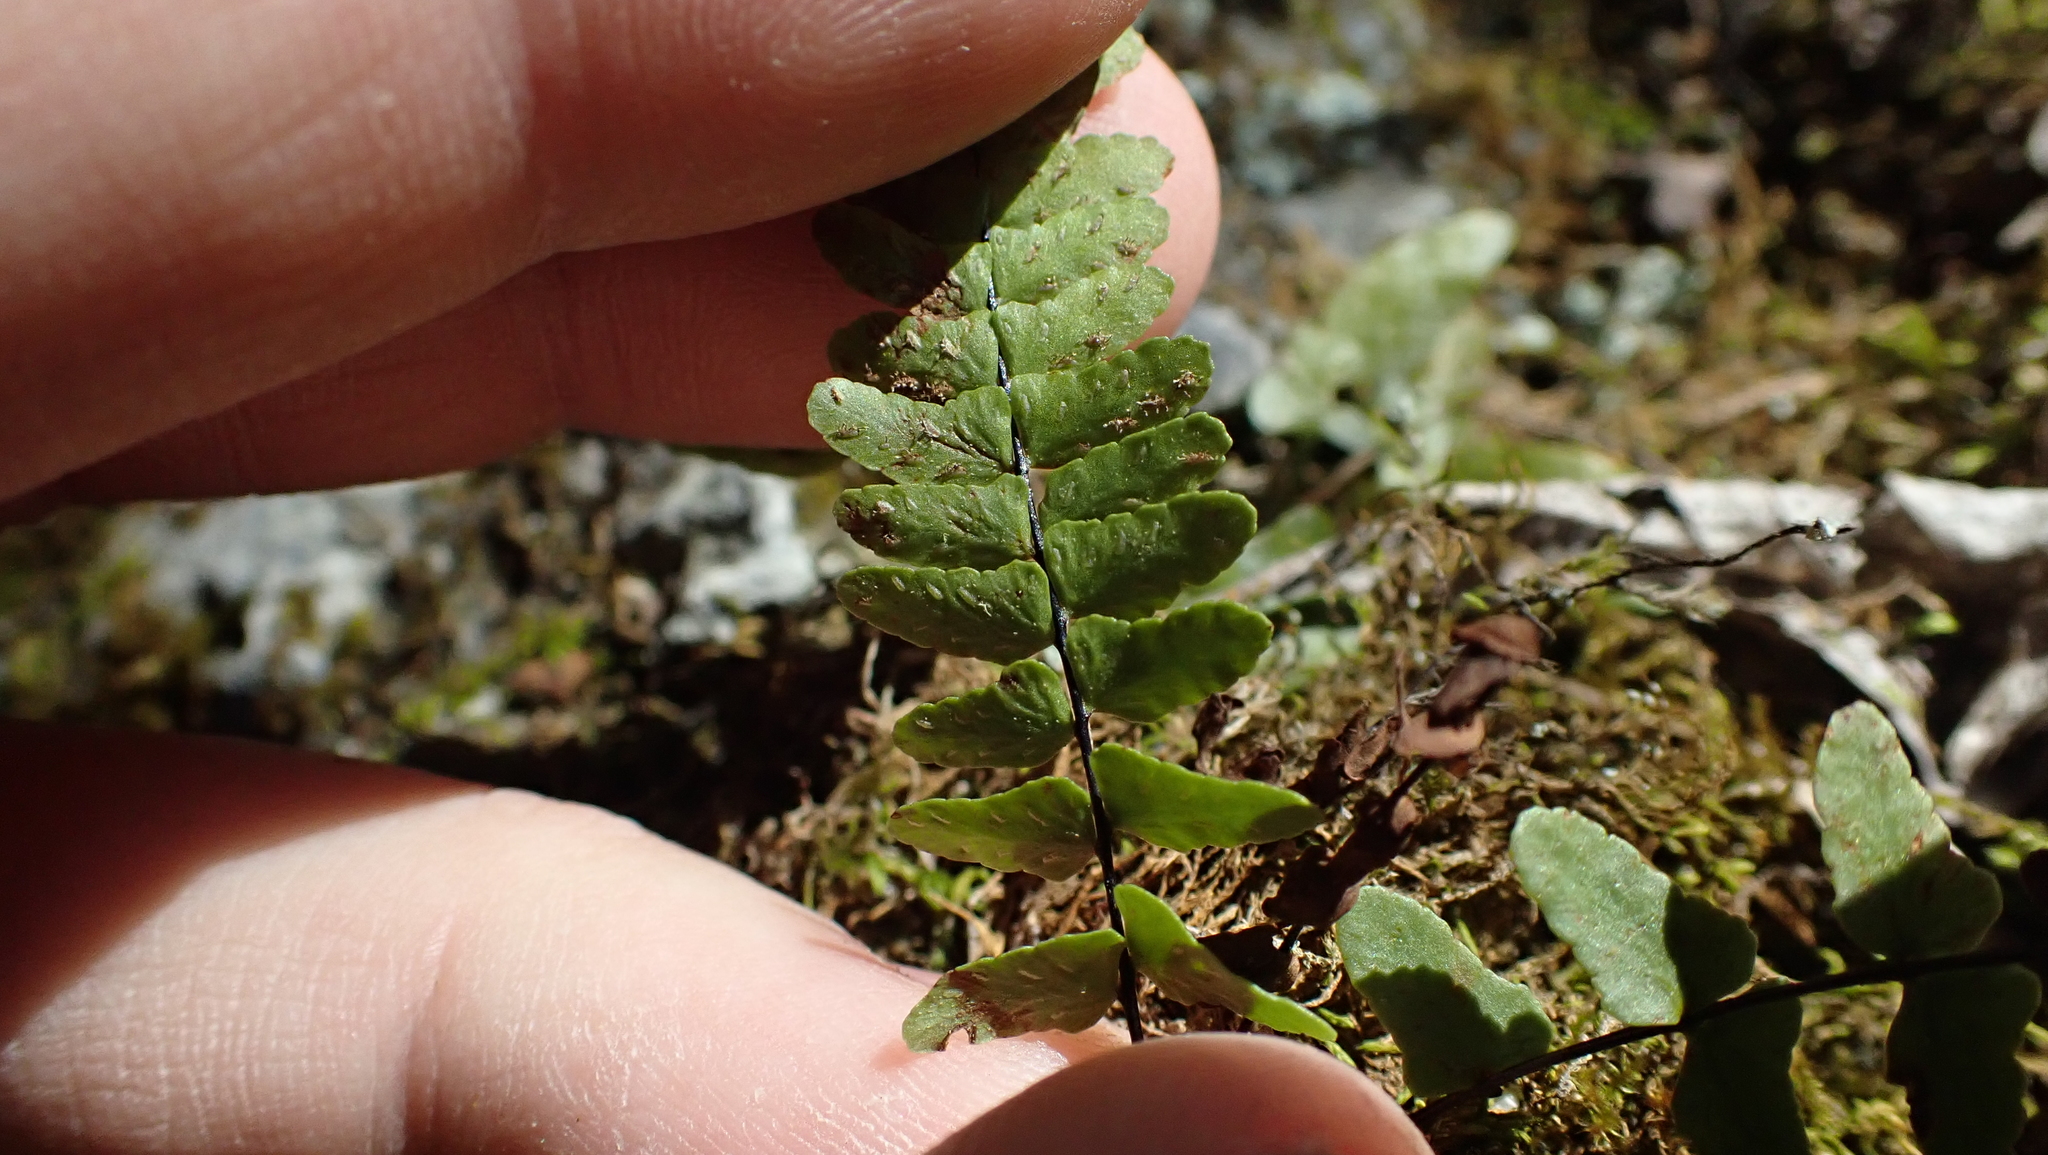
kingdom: Plantae
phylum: Tracheophyta
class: Polypodiopsida
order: Polypodiales
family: Aspleniaceae
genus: Asplenium
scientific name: Asplenium resiliens
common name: Blackstem spleenwort
